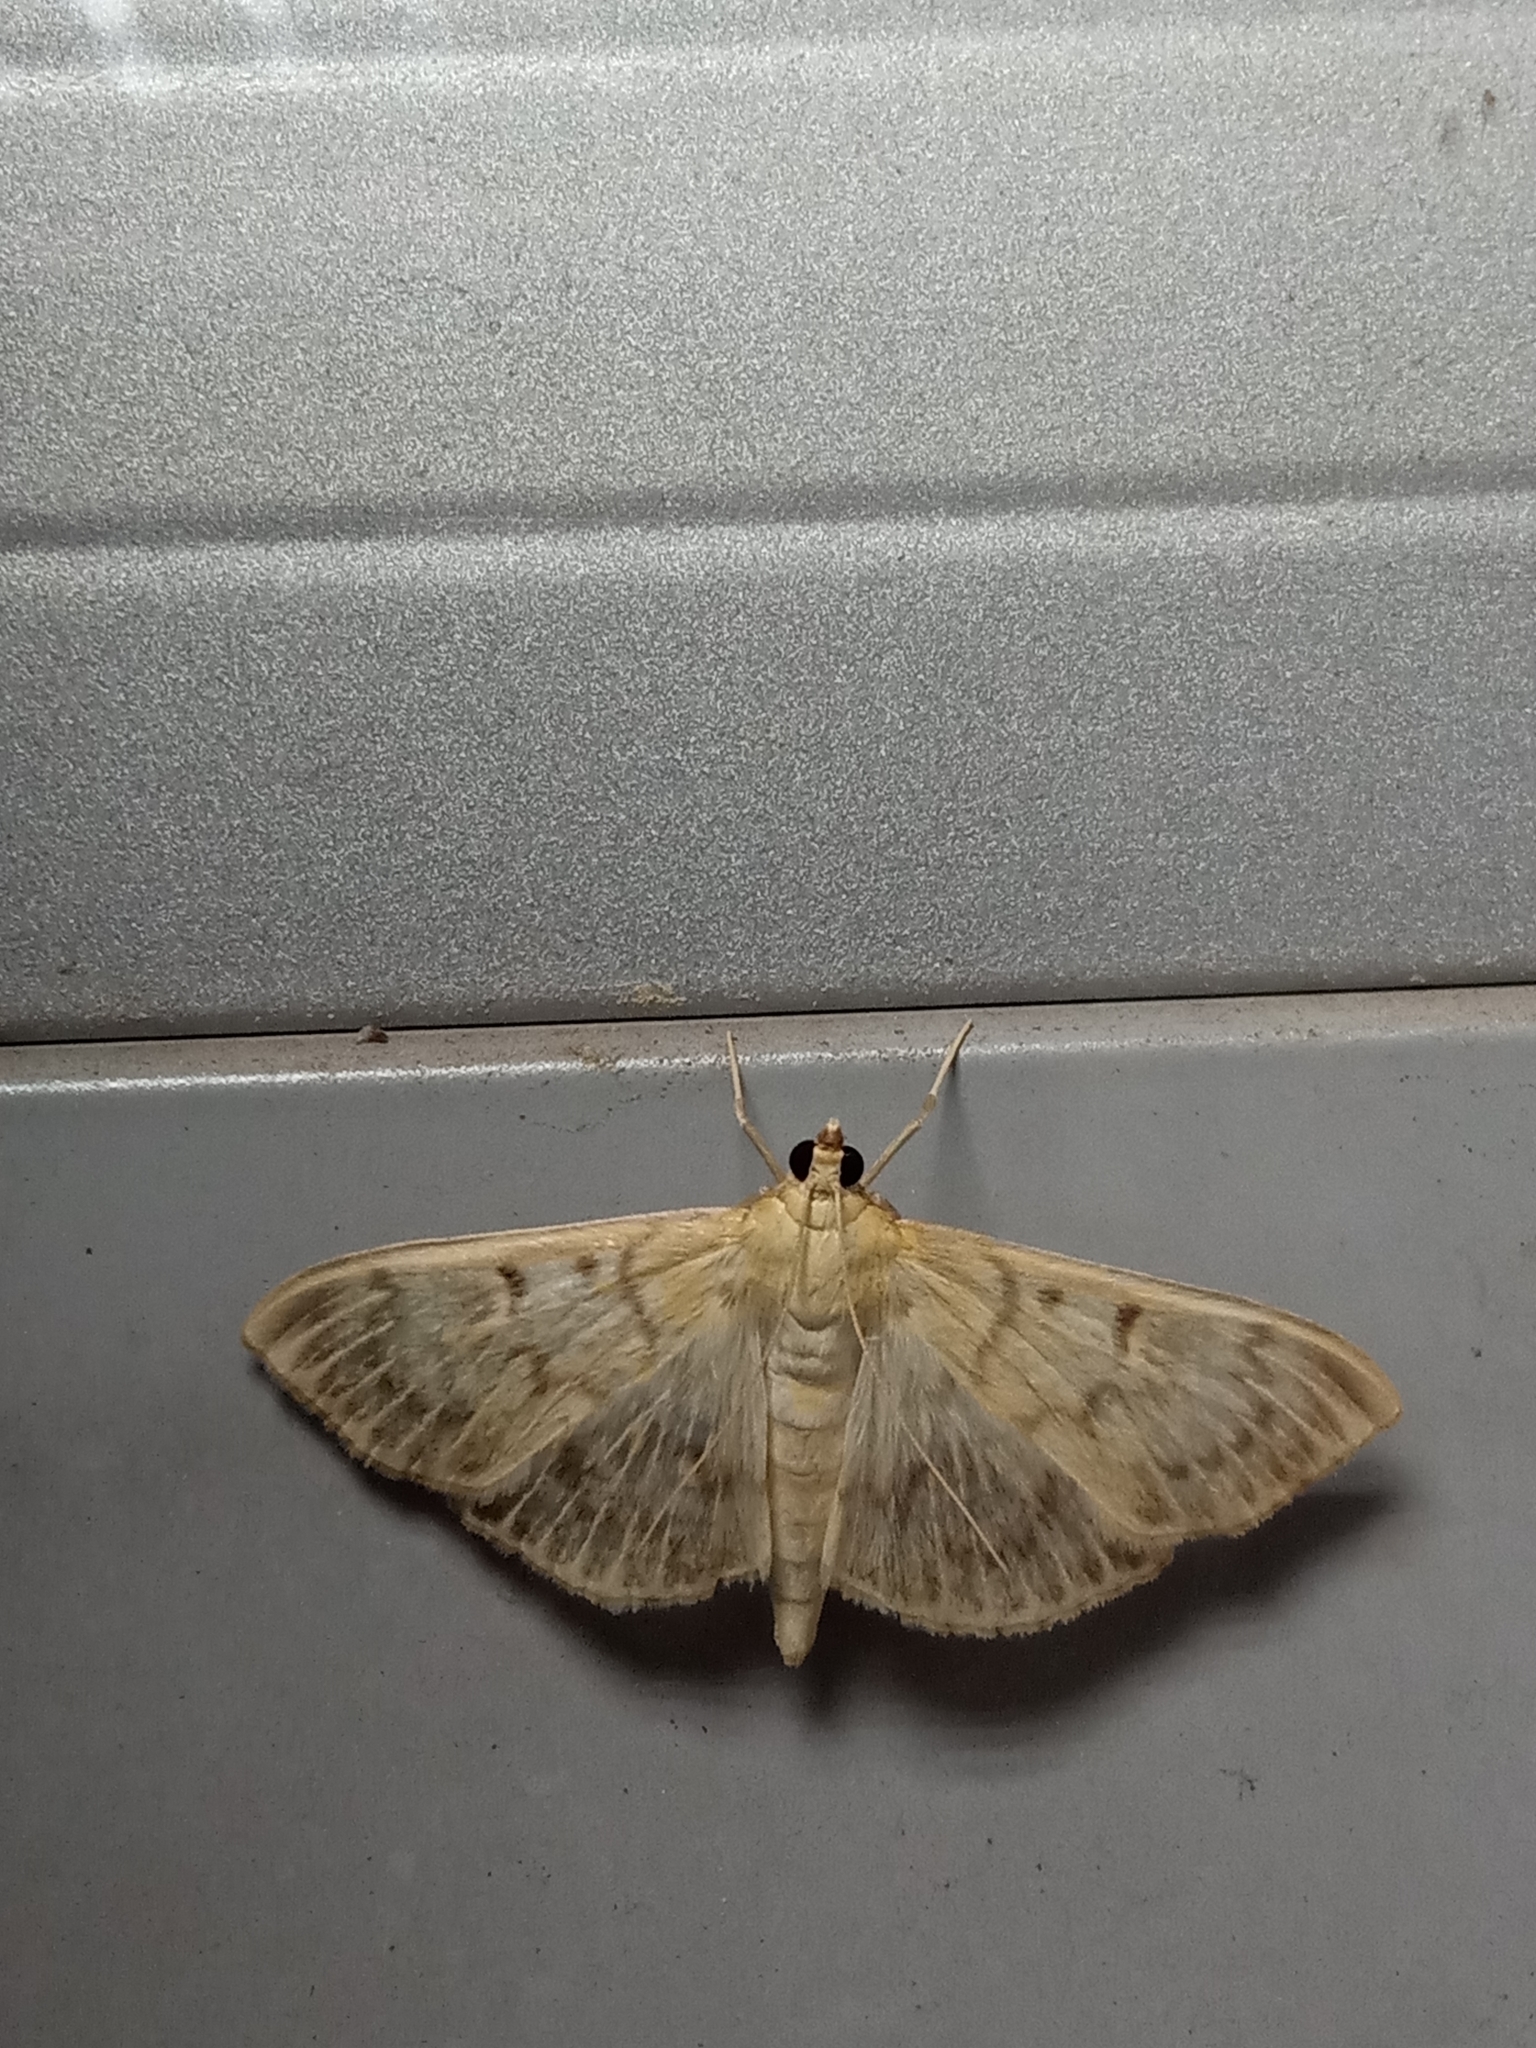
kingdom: Animalia
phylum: Arthropoda
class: Insecta
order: Lepidoptera
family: Crambidae
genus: Patania
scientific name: Patania ruralis
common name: Mother of pearl
